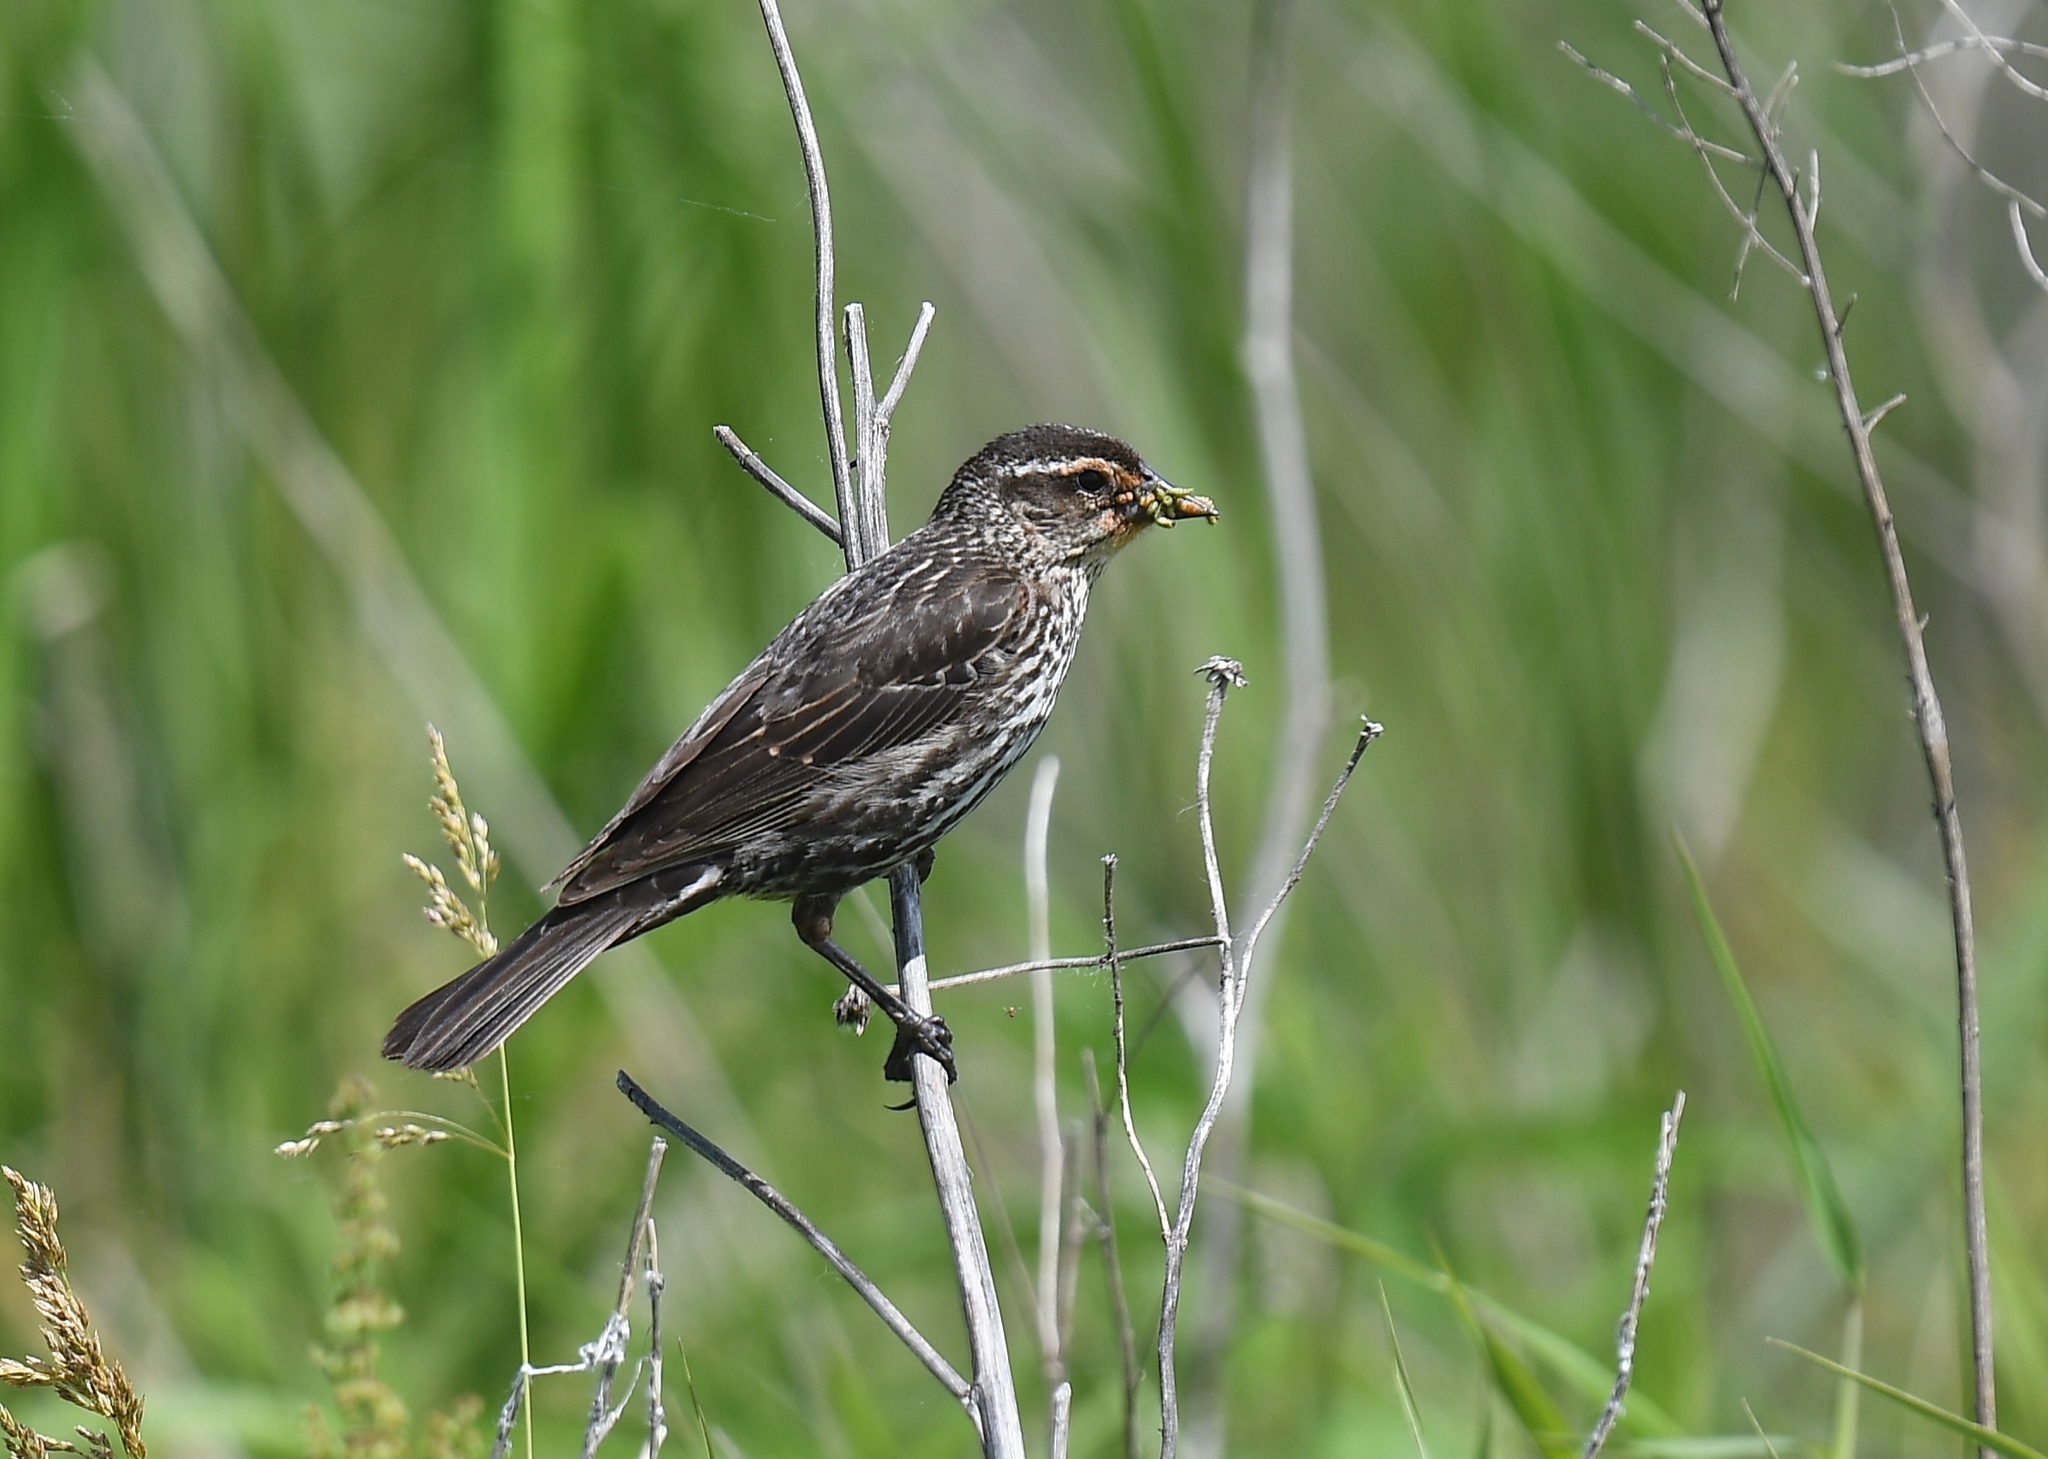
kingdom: Animalia
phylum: Chordata
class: Aves
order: Passeriformes
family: Icteridae
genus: Agelaius
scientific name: Agelaius phoeniceus
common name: Red-winged blackbird
